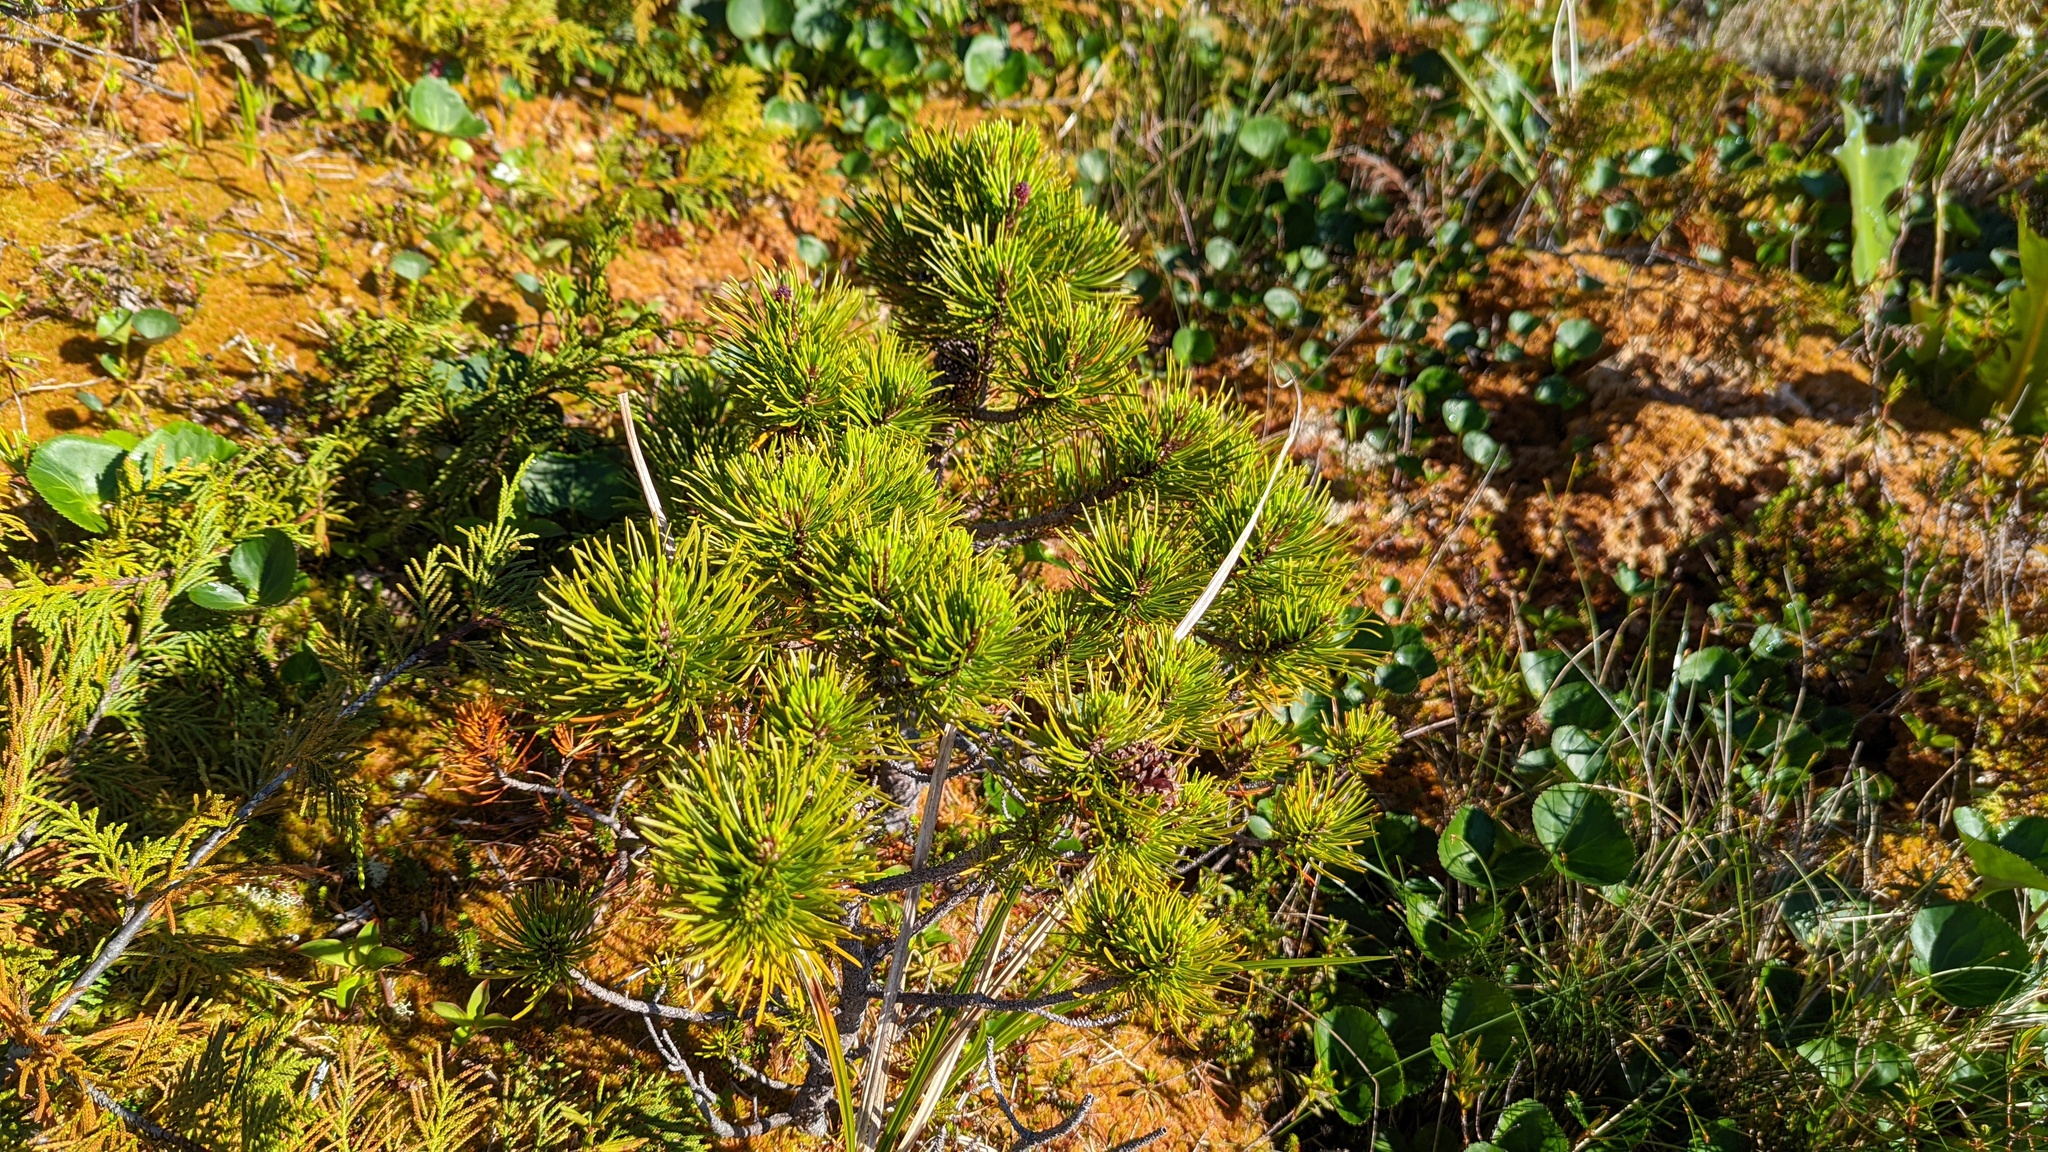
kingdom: Plantae
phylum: Tracheophyta
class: Pinopsida
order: Pinales
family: Pinaceae
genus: Pinus
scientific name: Pinus contorta
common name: Lodgepole pine
